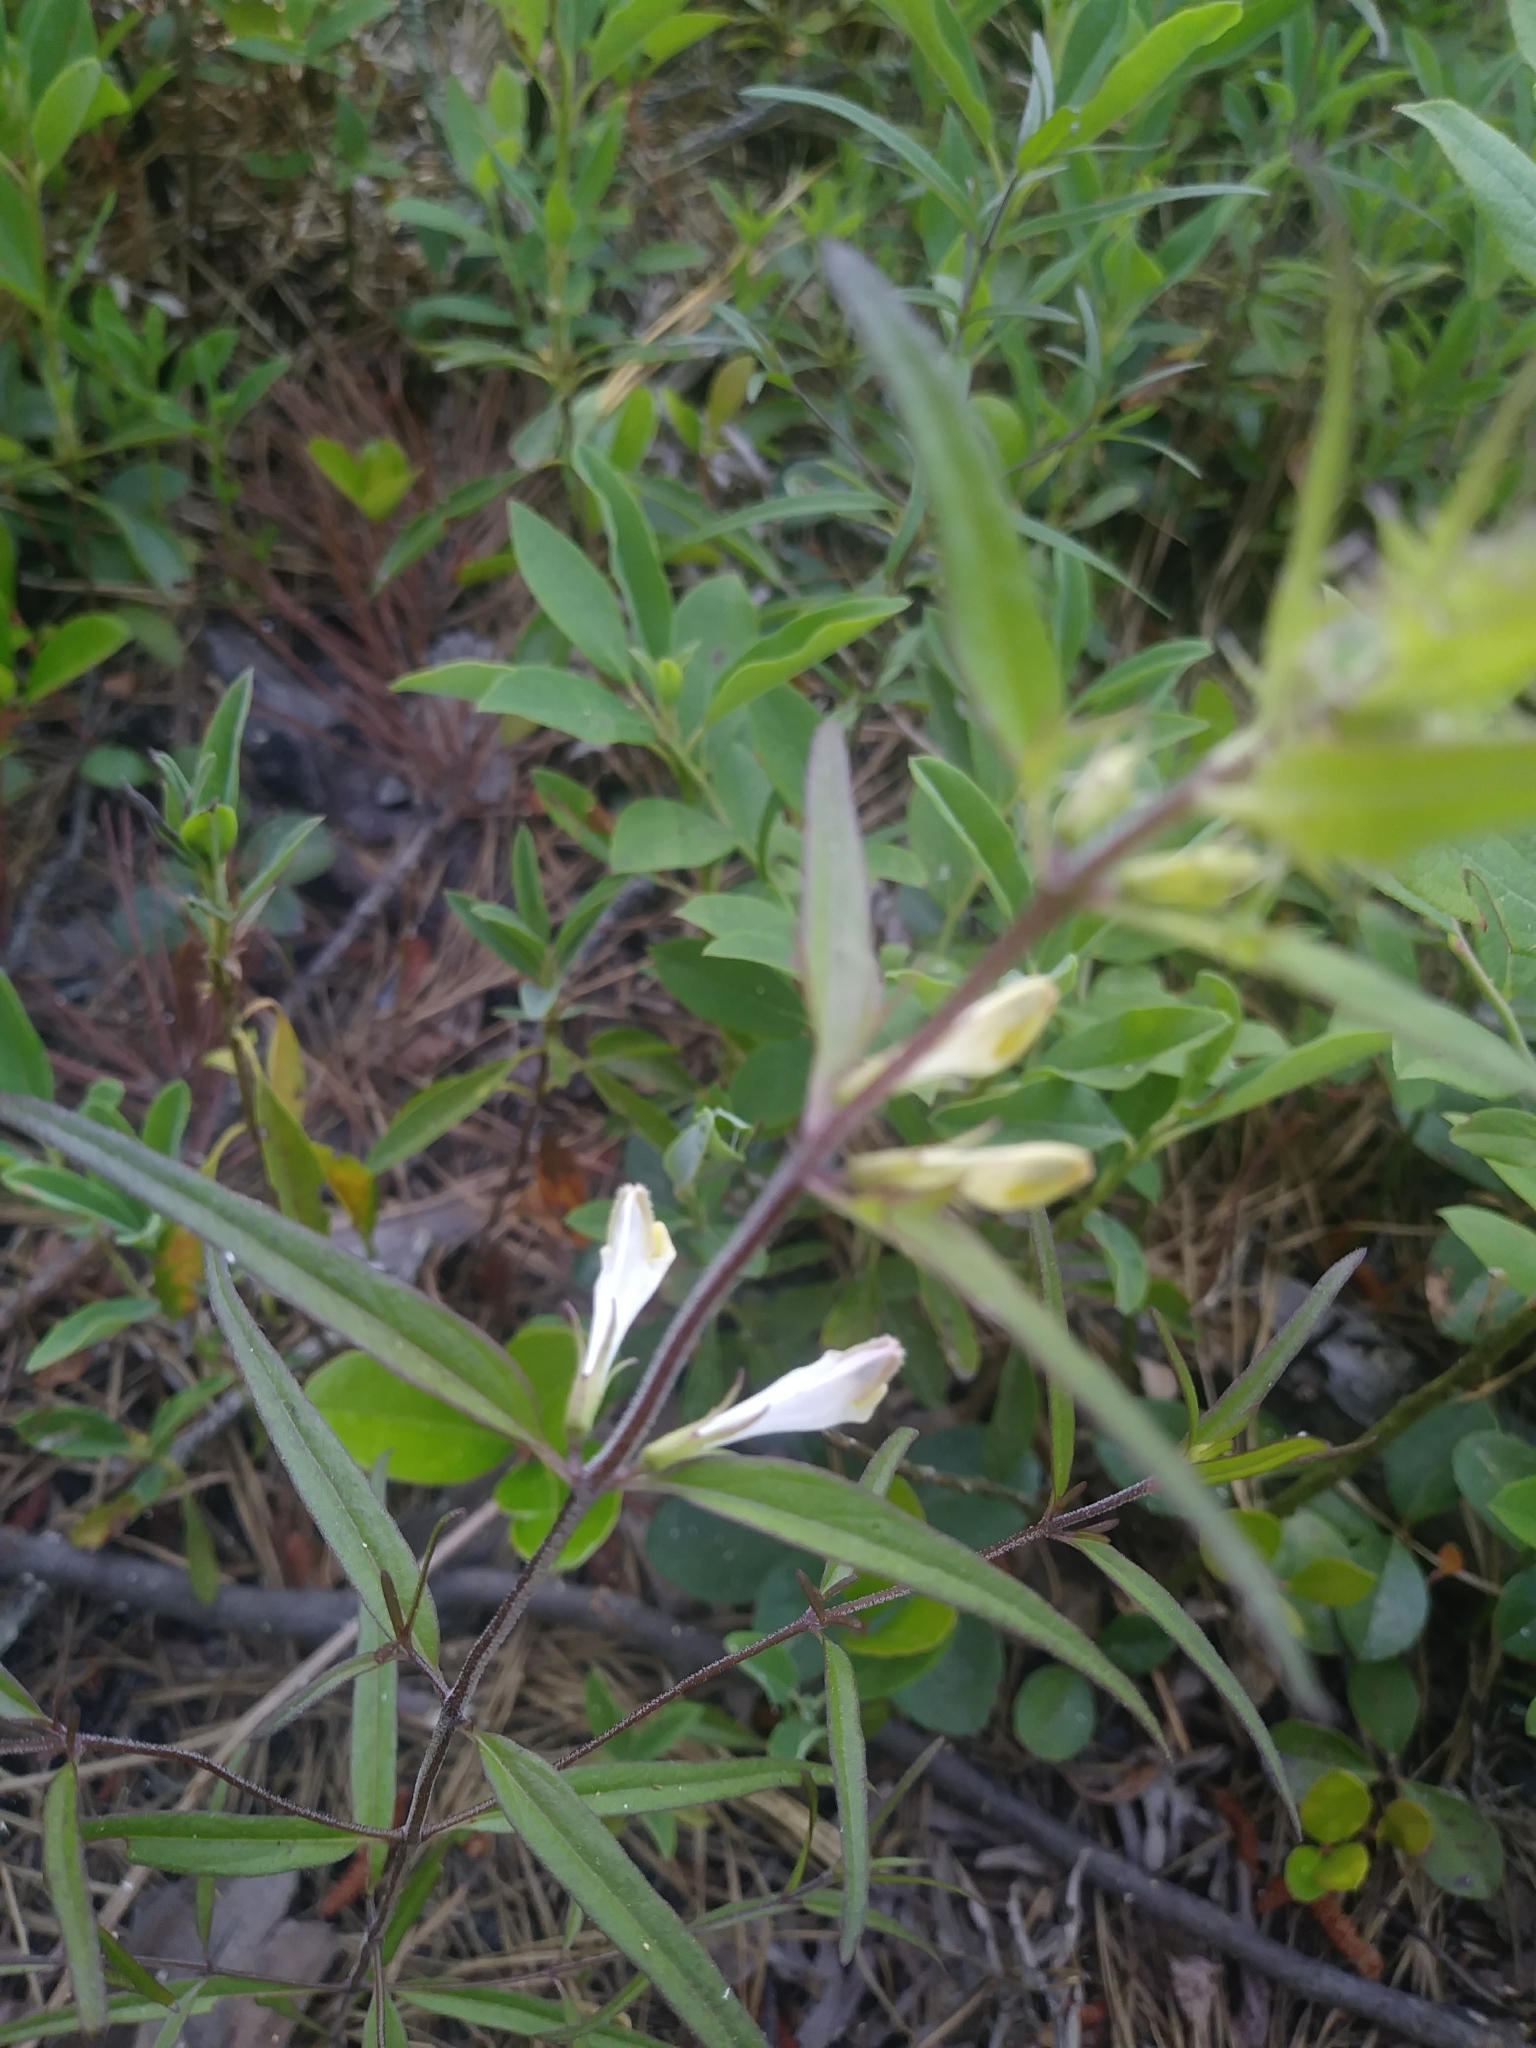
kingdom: Plantae
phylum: Tracheophyta
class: Magnoliopsida
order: Lamiales
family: Orobanchaceae
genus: Melampyrum
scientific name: Melampyrum lineare
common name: American cow-wheat
